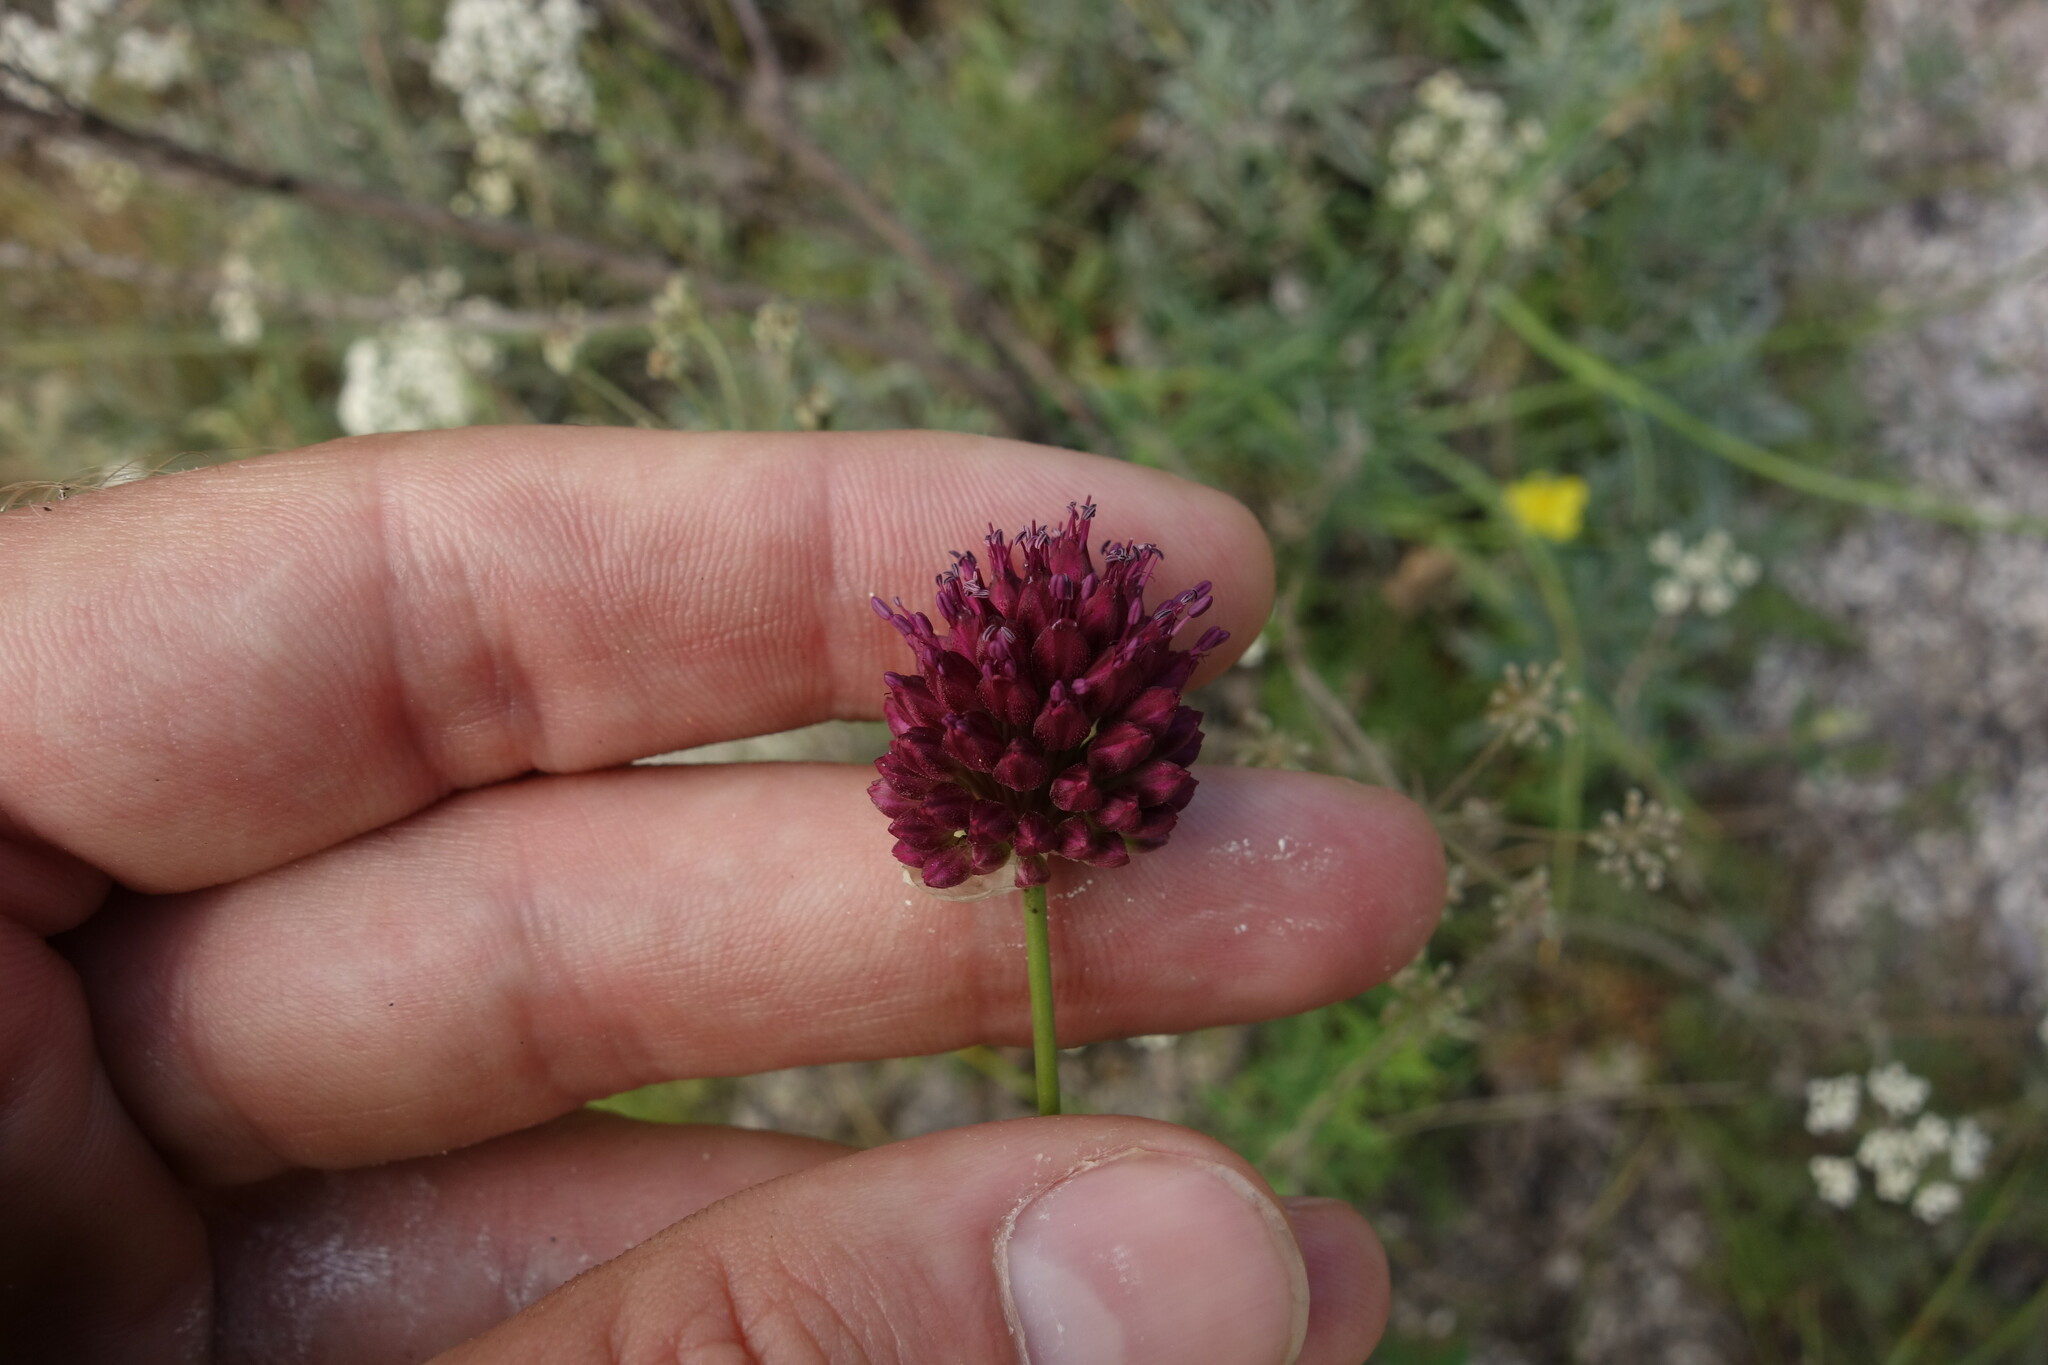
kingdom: Plantae
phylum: Tracheophyta
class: Liliopsida
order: Asparagales
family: Amaryllidaceae
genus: Allium
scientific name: Allium sphaerocephalon
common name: Round-headed leek
